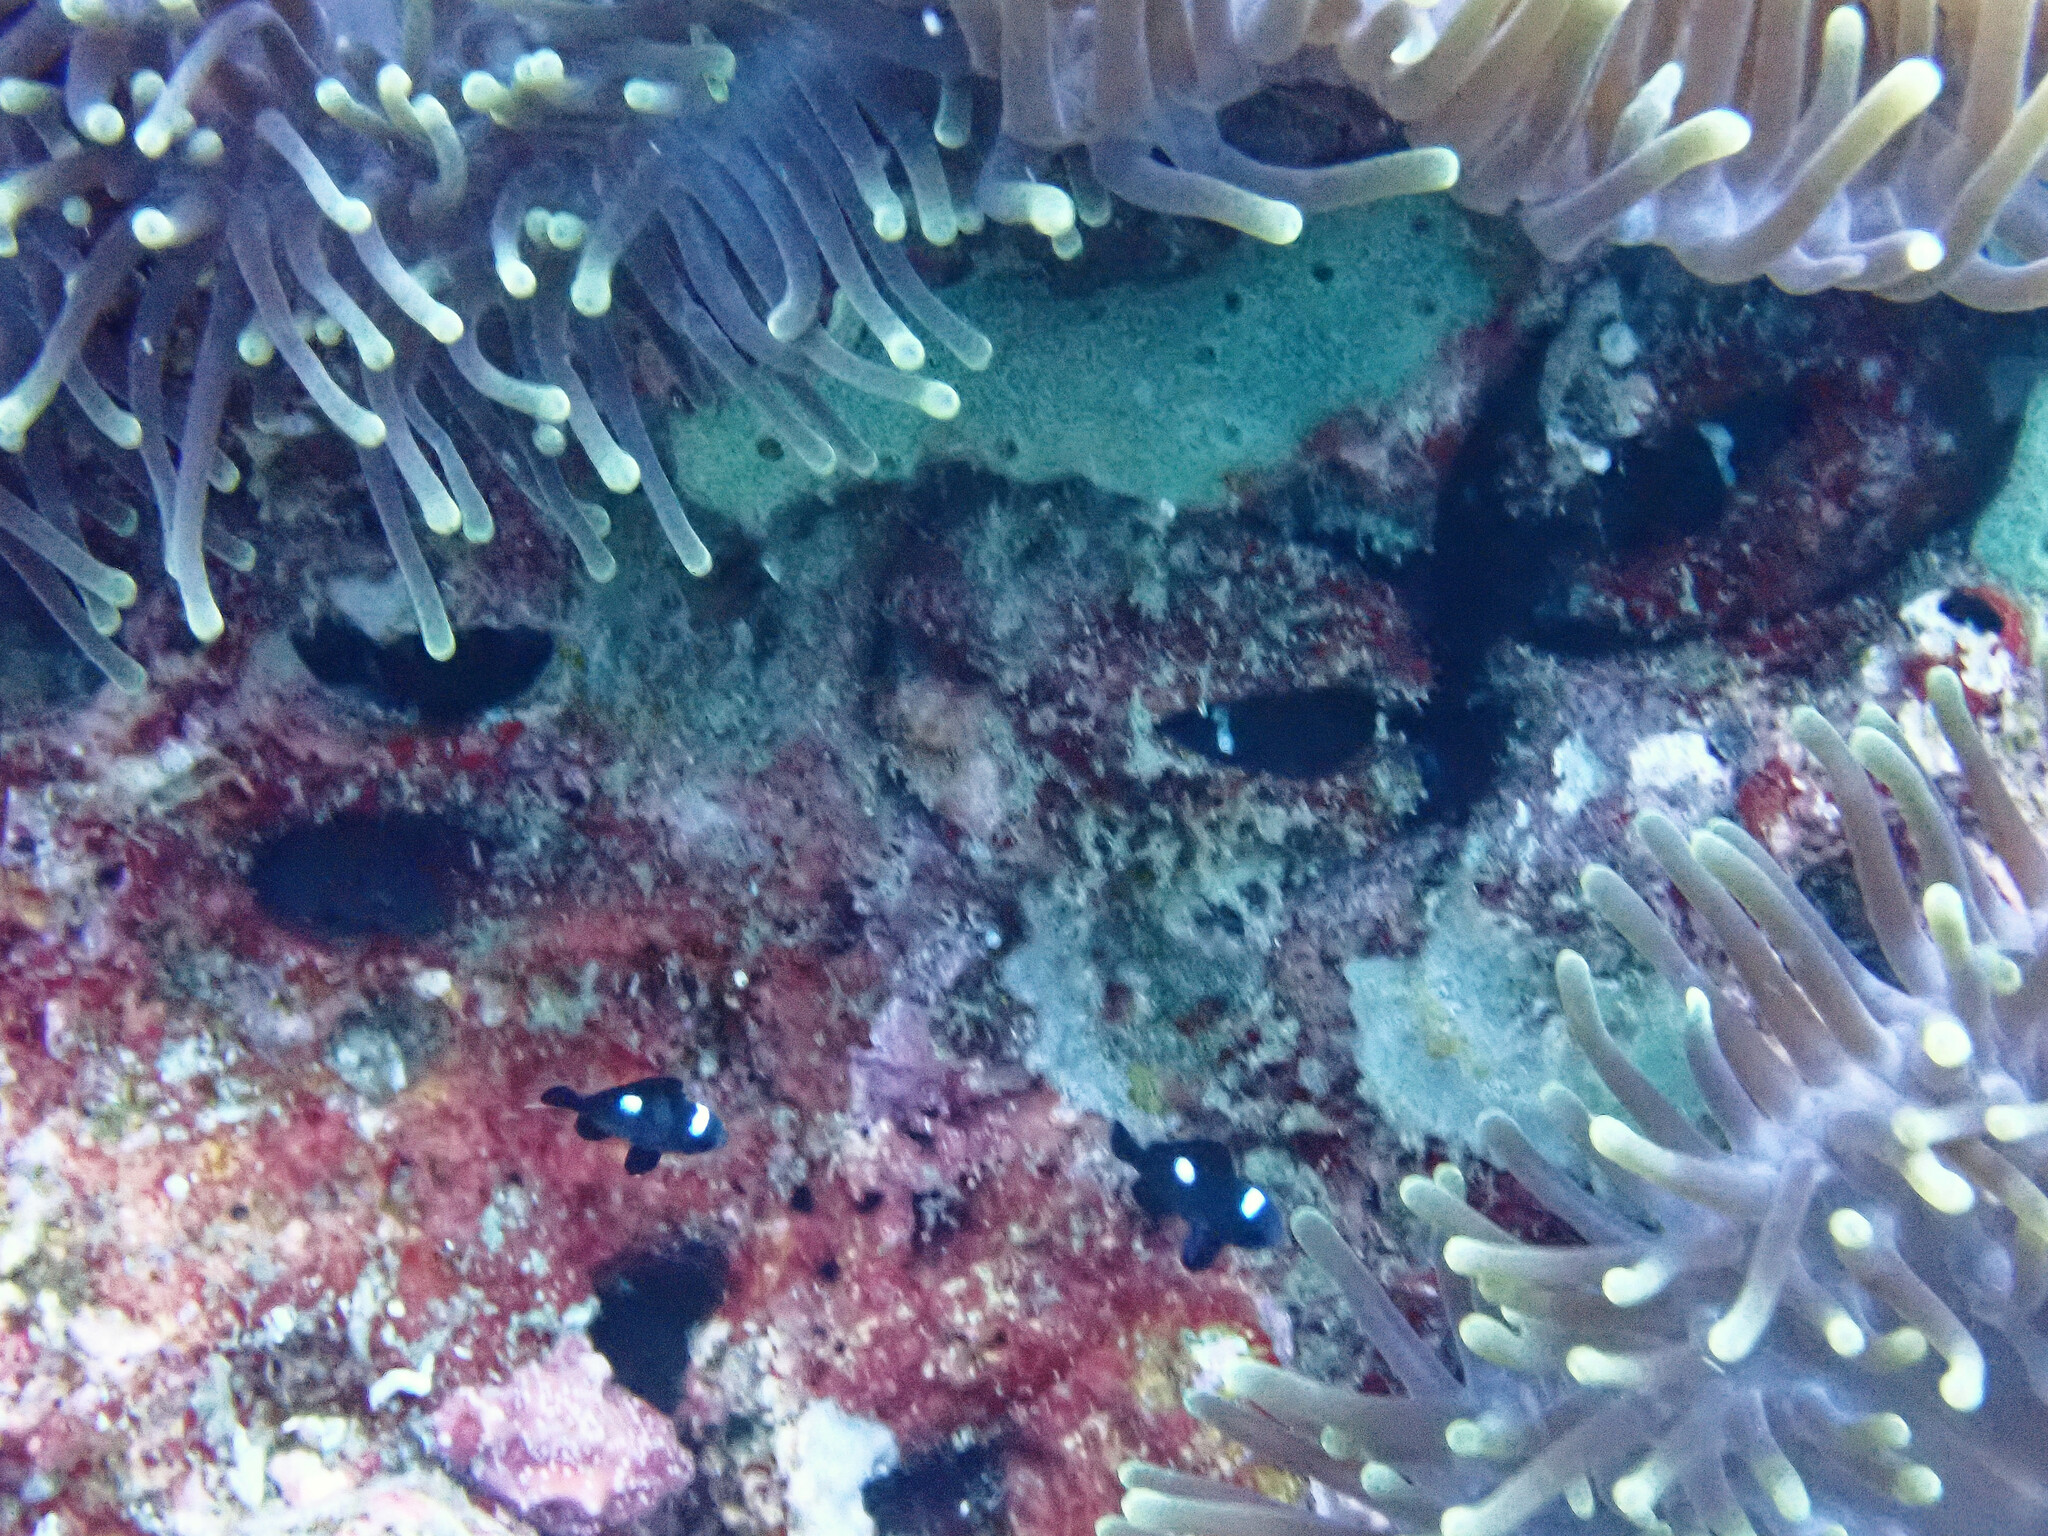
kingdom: Animalia
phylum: Chordata
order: Perciformes
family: Pomacentridae
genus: Dascyllus
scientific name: Dascyllus trimaculatus
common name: Threespot dascyllus
